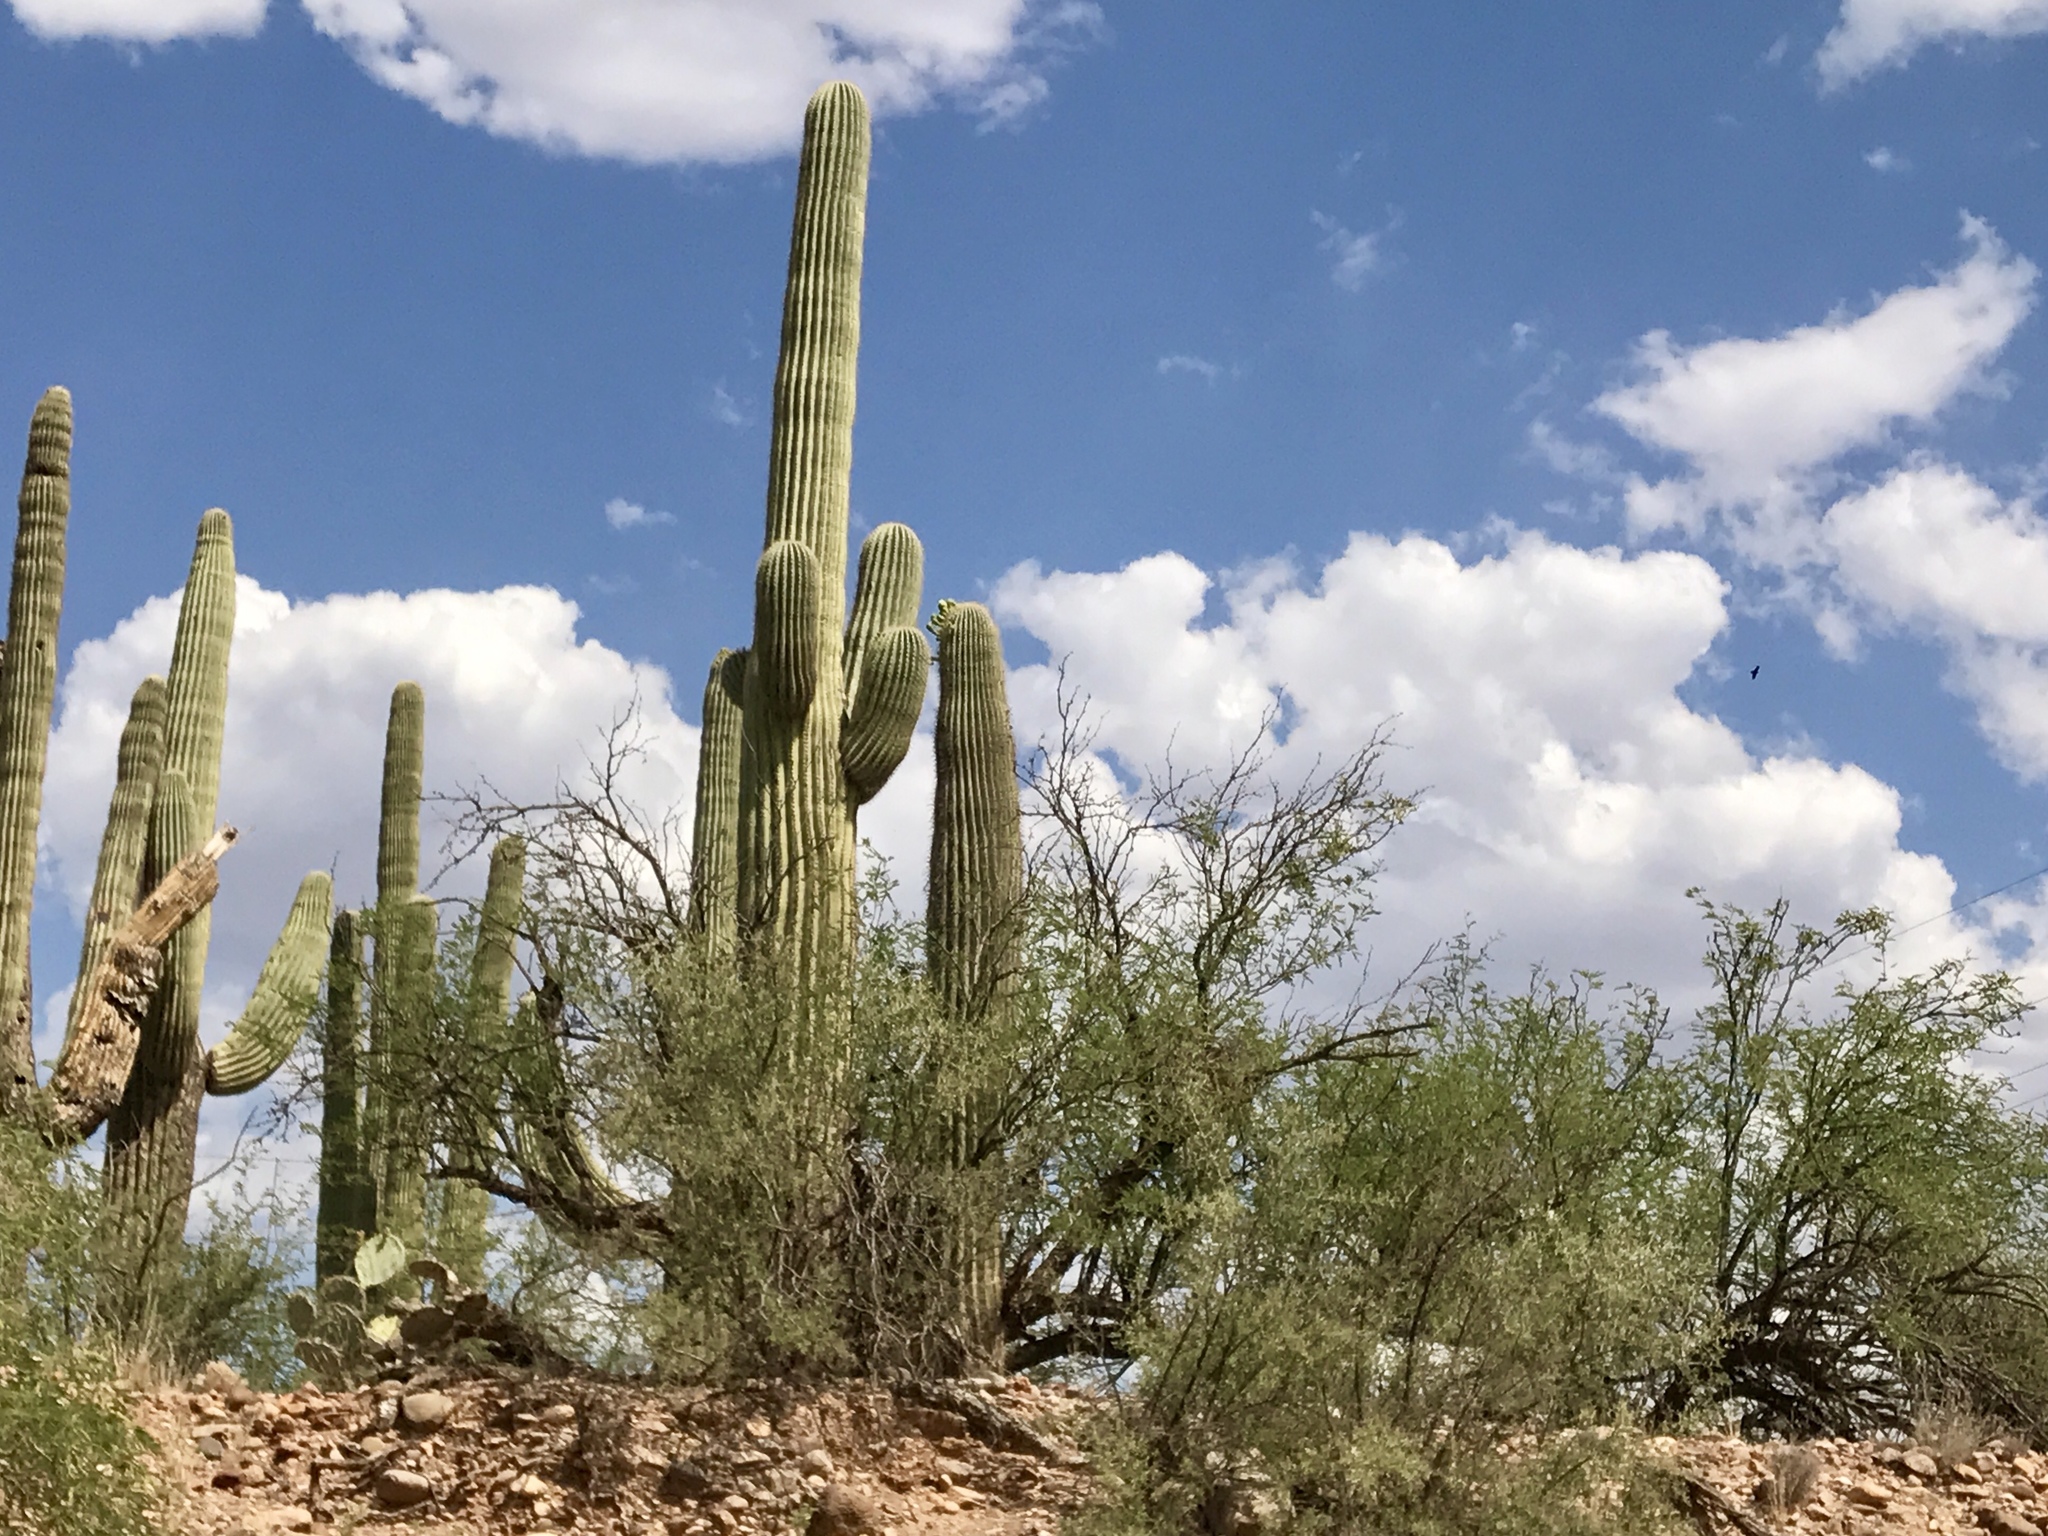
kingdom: Plantae
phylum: Tracheophyta
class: Magnoliopsida
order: Caryophyllales
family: Cactaceae
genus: Carnegiea
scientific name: Carnegiea gigantea
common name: Saguaro
